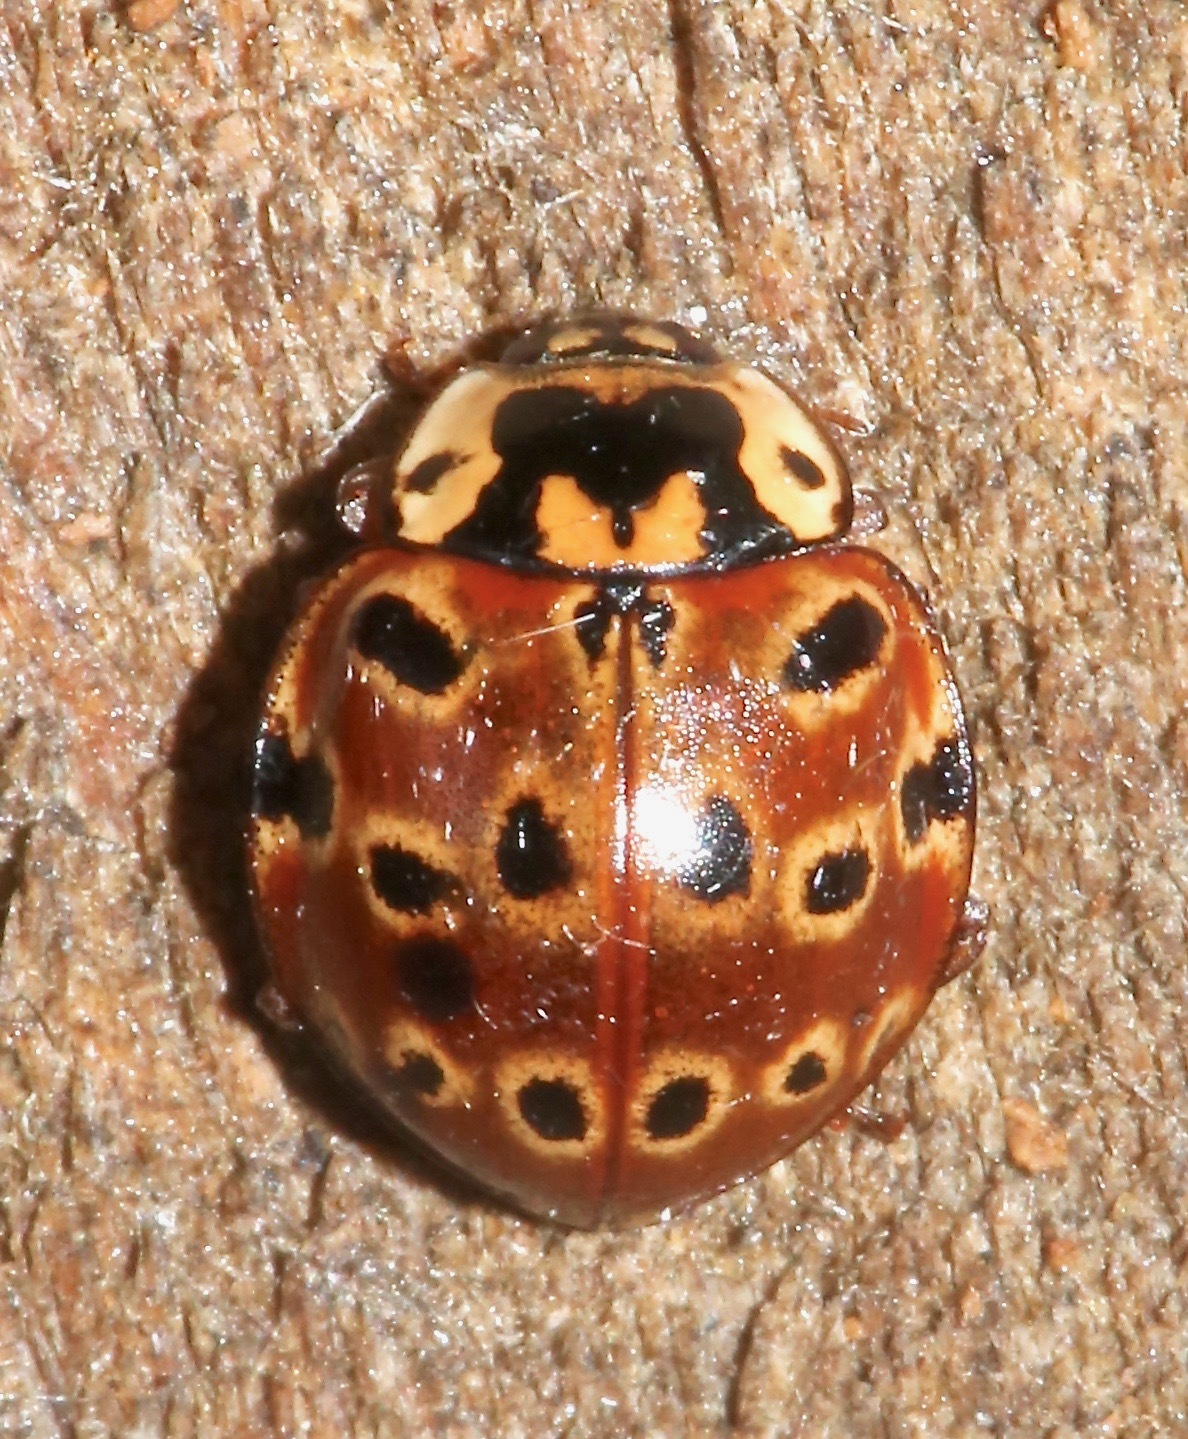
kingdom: Animalia
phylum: Arthropoda
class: Insecta
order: Coleoptera
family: Coccinellidae
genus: Anatis
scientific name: Anatis mali
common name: Eye-spotted lady beetle
